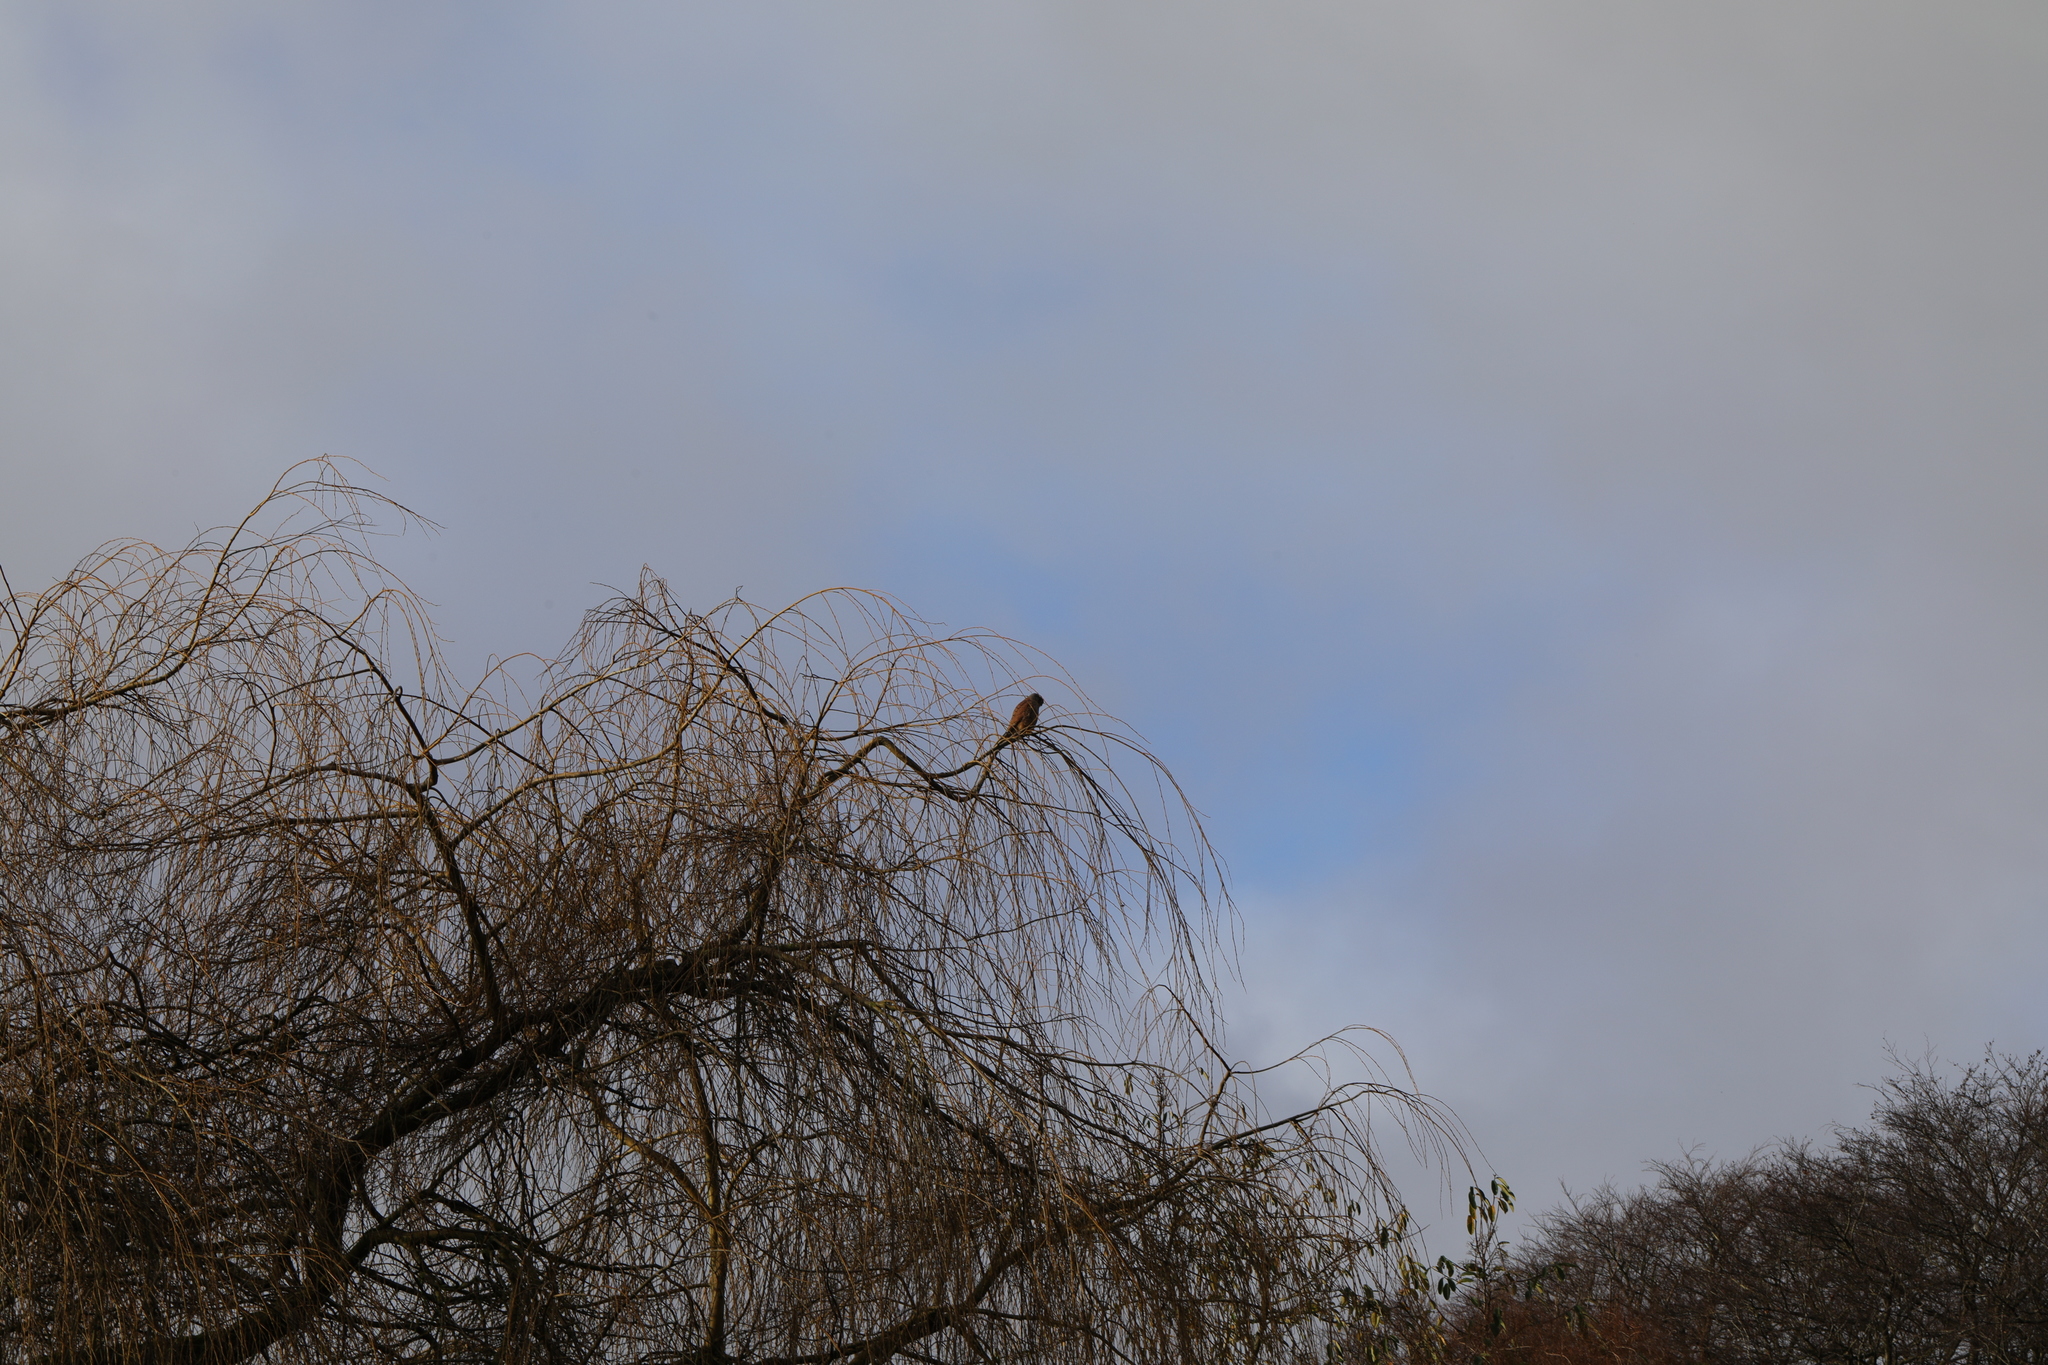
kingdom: Animalia
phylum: Chordata
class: Aves
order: Falconiformes
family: Falconidae
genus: Falco
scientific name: Falco tinnunculus
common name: Common kestrel
